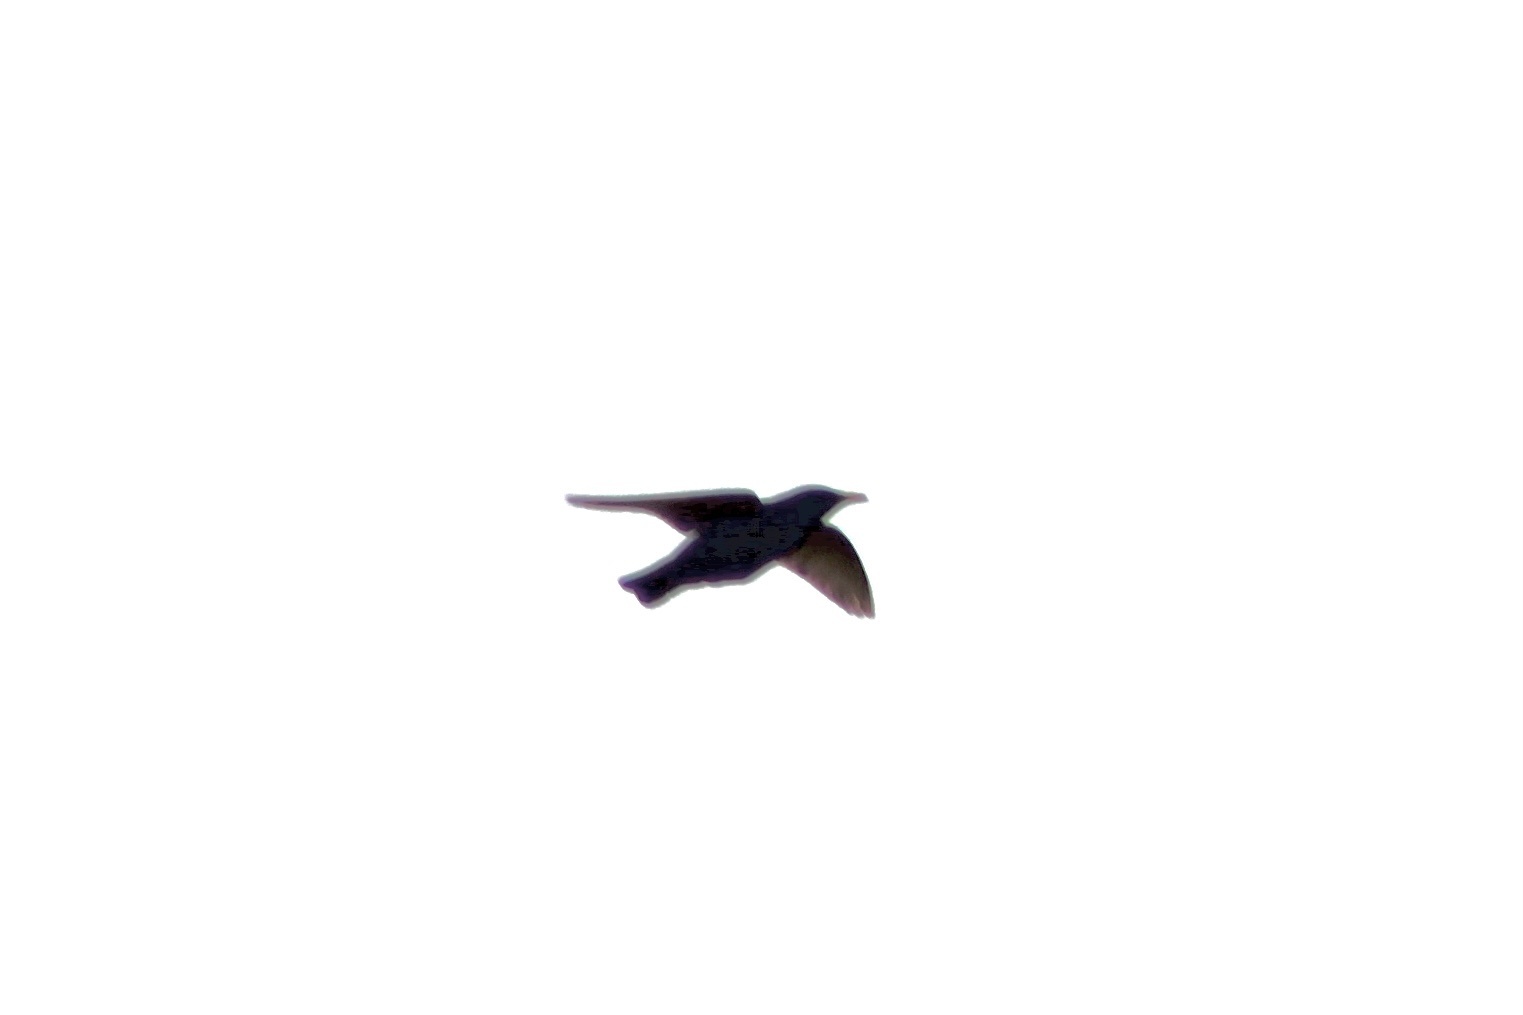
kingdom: Animalia
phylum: Chordata
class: Aves
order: Passeriformes
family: Sturnidae
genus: Sturnus
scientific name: Sturnus vulgaris
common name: Common starling
